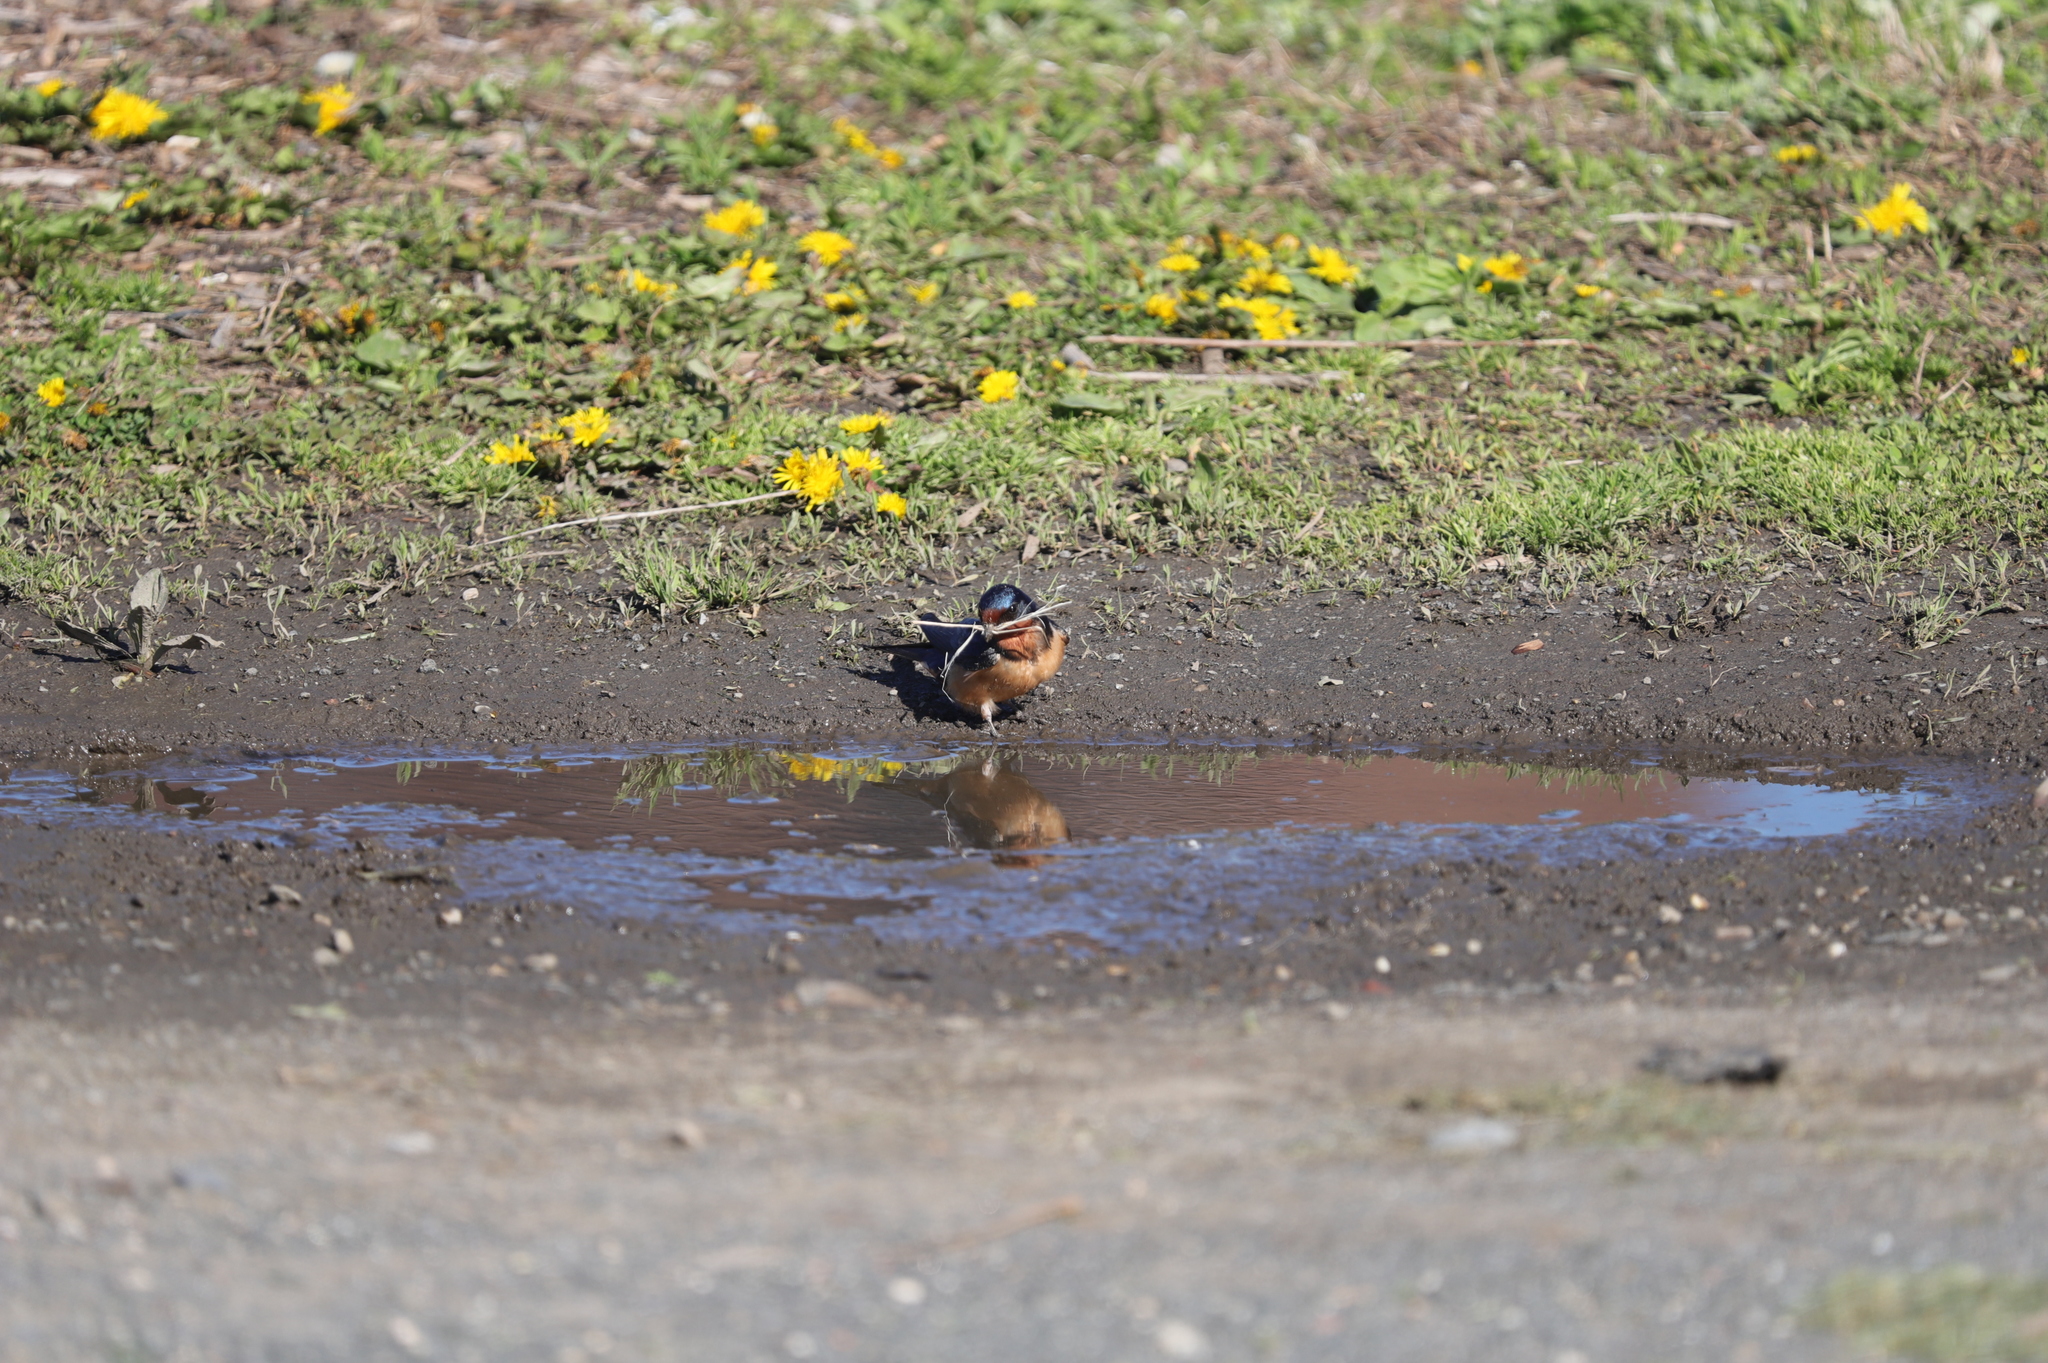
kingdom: Animalia
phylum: Chordata
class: Aves
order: Passeriformes
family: Hirundinidae
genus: Hirundo
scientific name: Hirundo rustica
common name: Barn swallow
